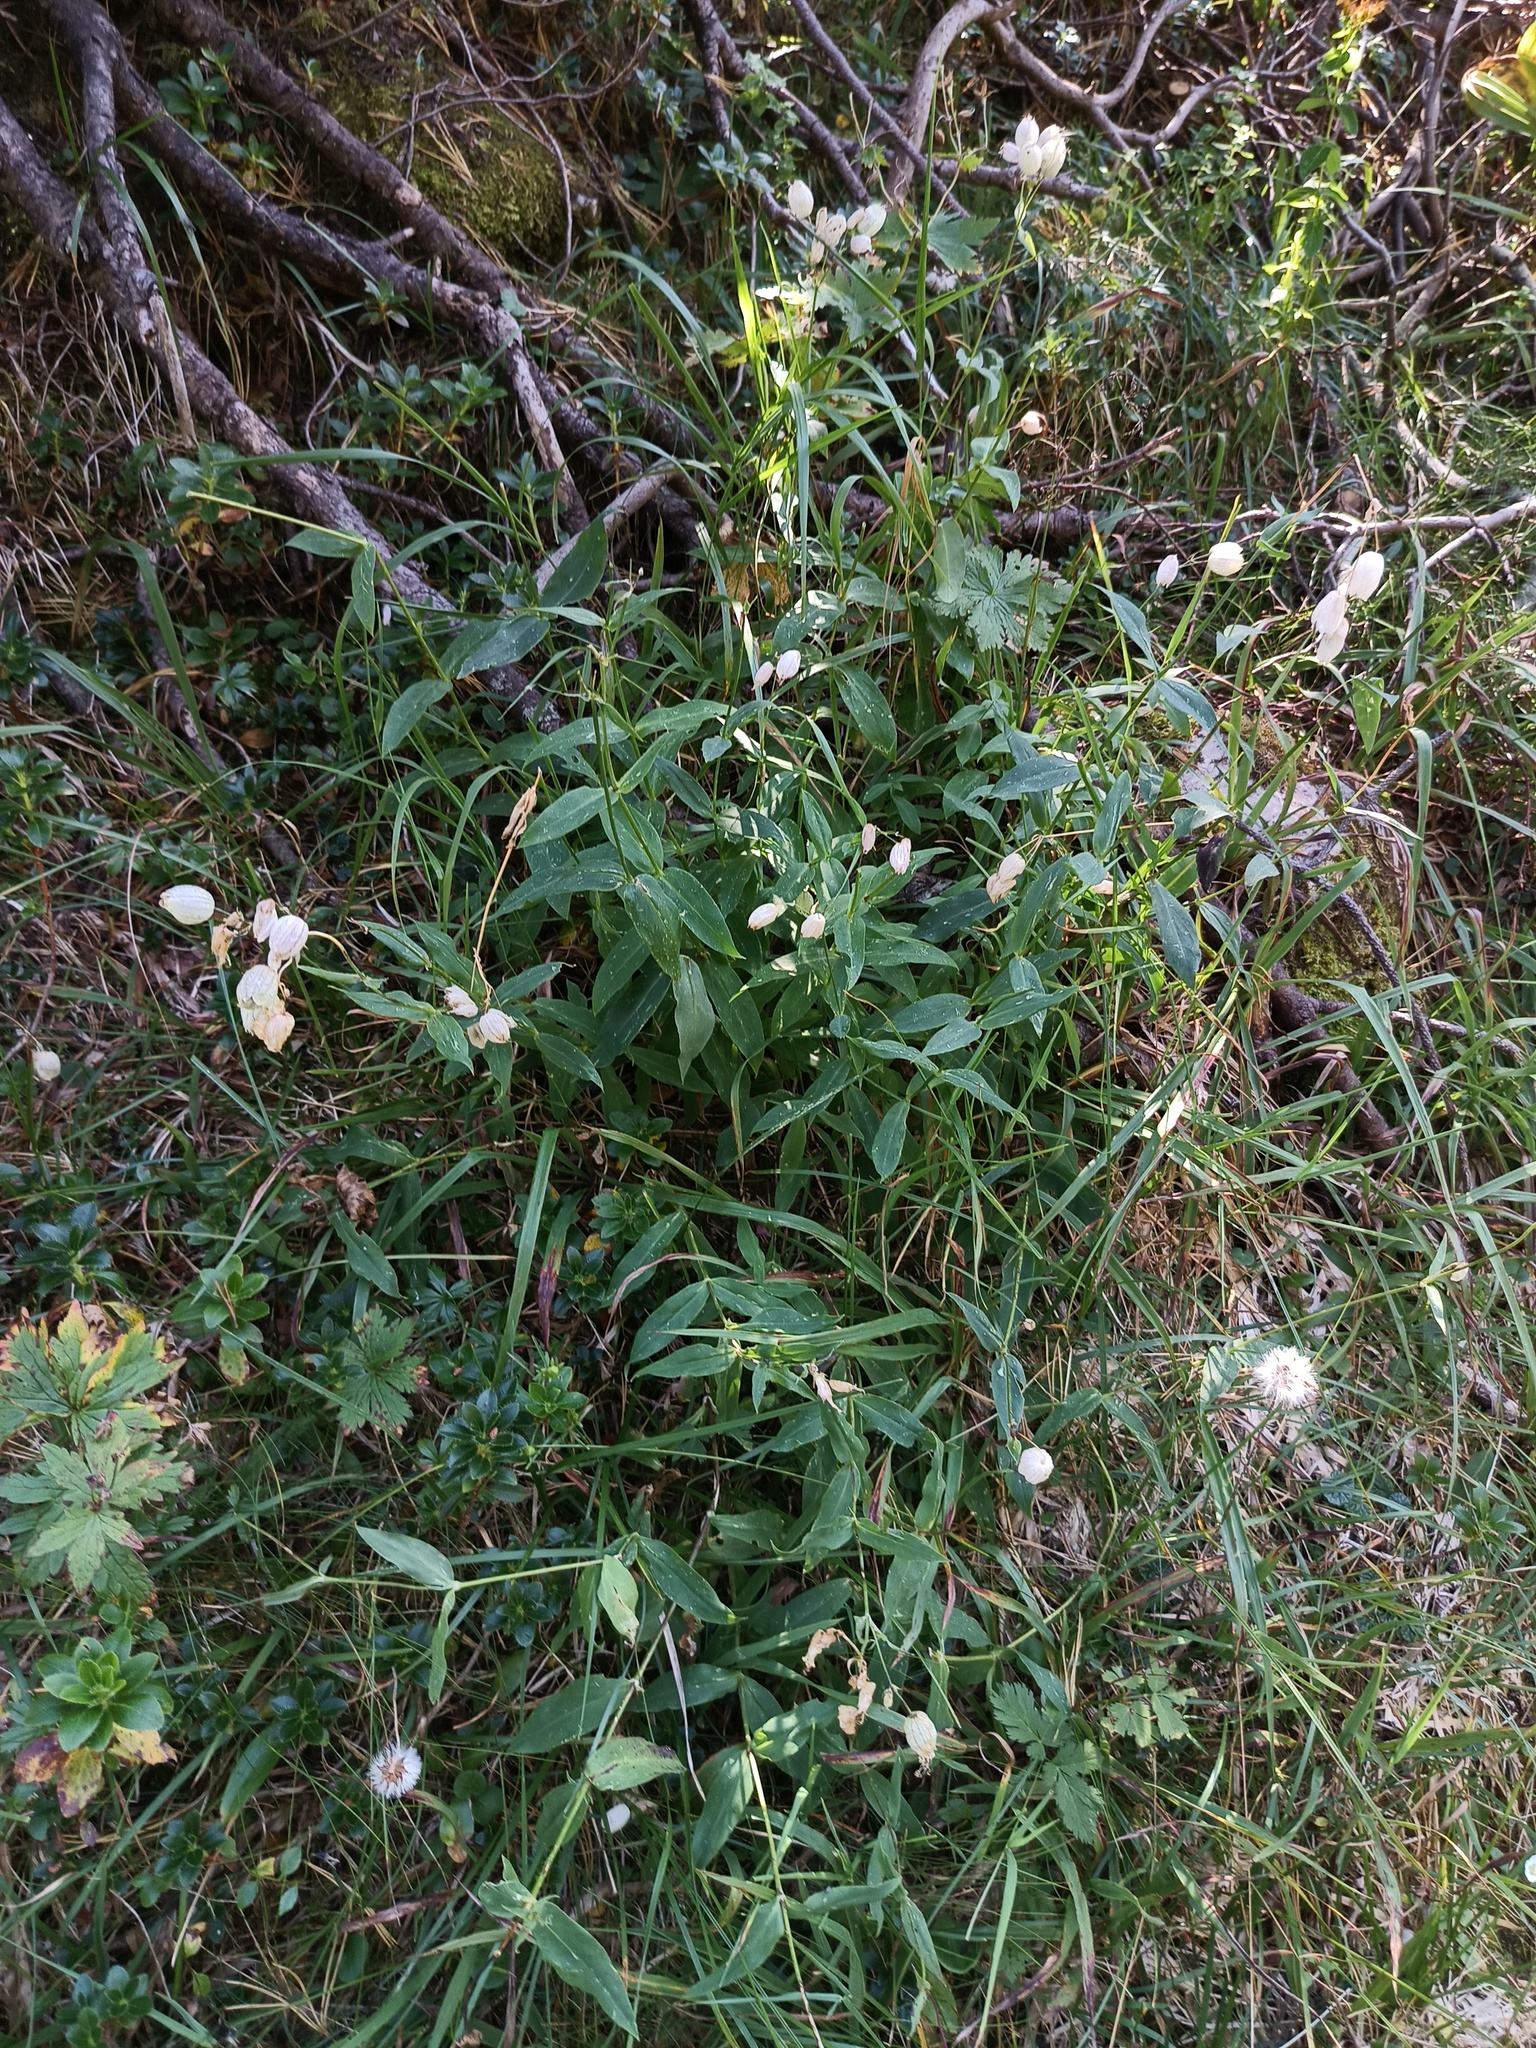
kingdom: Plantae
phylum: Tracheophyta
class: Magnoliopsida
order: Caryophyllales
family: Caryophyllaceae
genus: Silene
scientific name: Silene vulgaris
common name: Bladder campion
